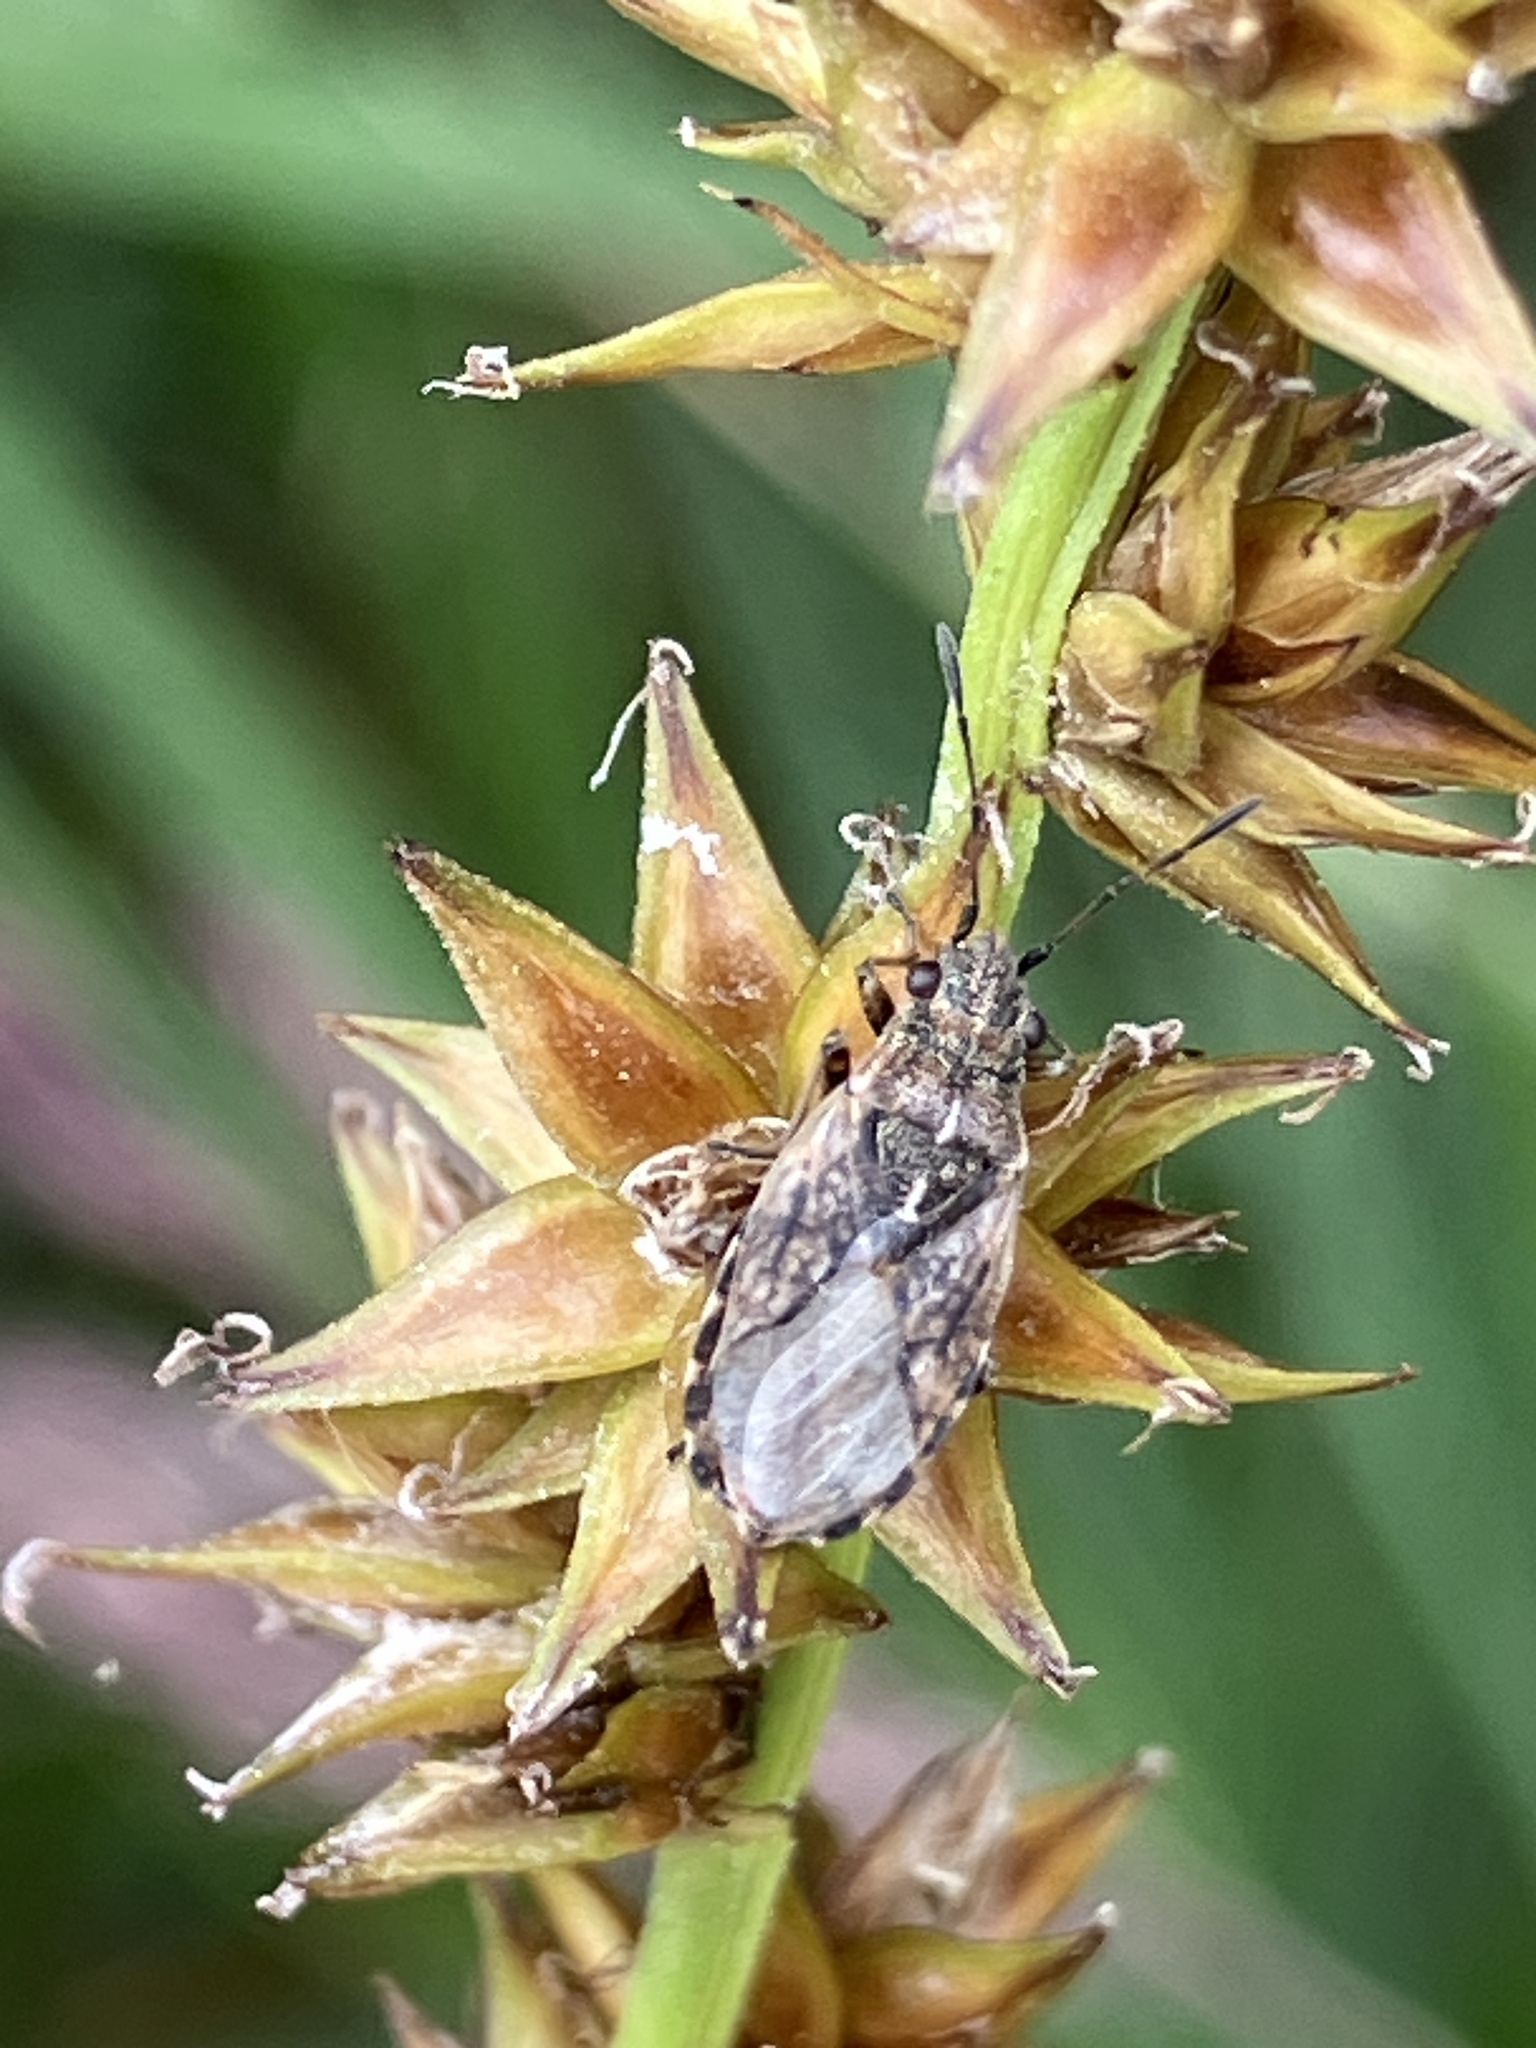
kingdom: Animalia
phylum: Arthropoda
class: Insecta
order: Hemiptera
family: Lygaeidae
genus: Nithecus
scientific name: Nithecus jacobaeae
